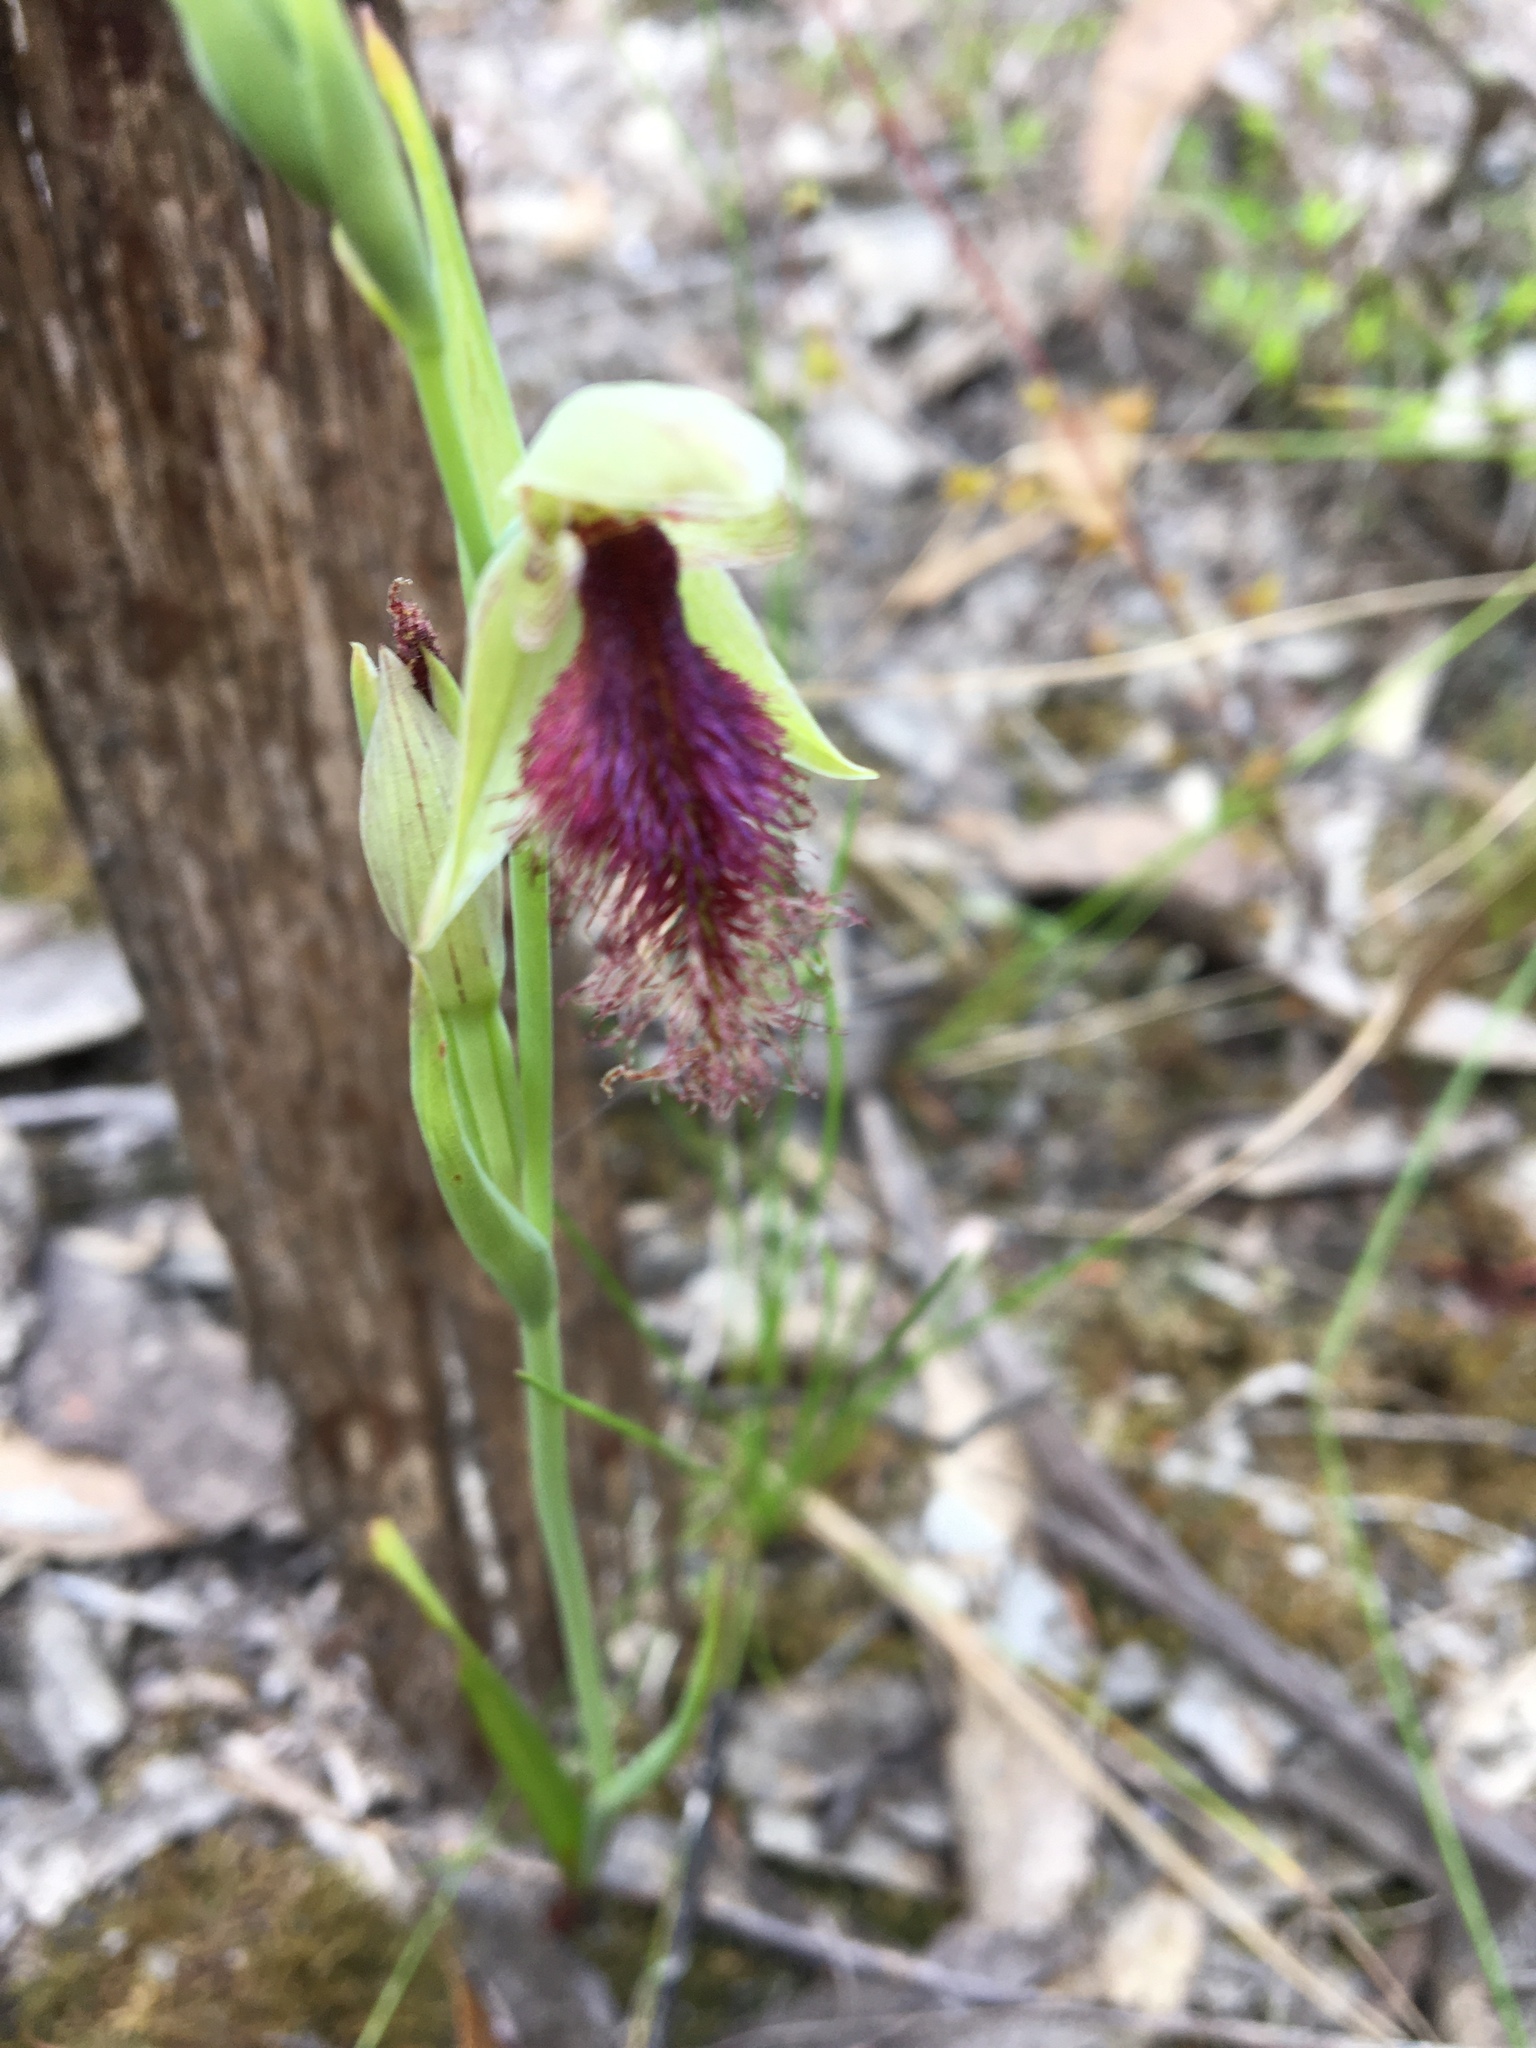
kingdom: Plantae
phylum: Tracheophyta
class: Liliopsida
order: Asparagales
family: Orchidaceae
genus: Calochilus
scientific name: Calochilus robertsonii
